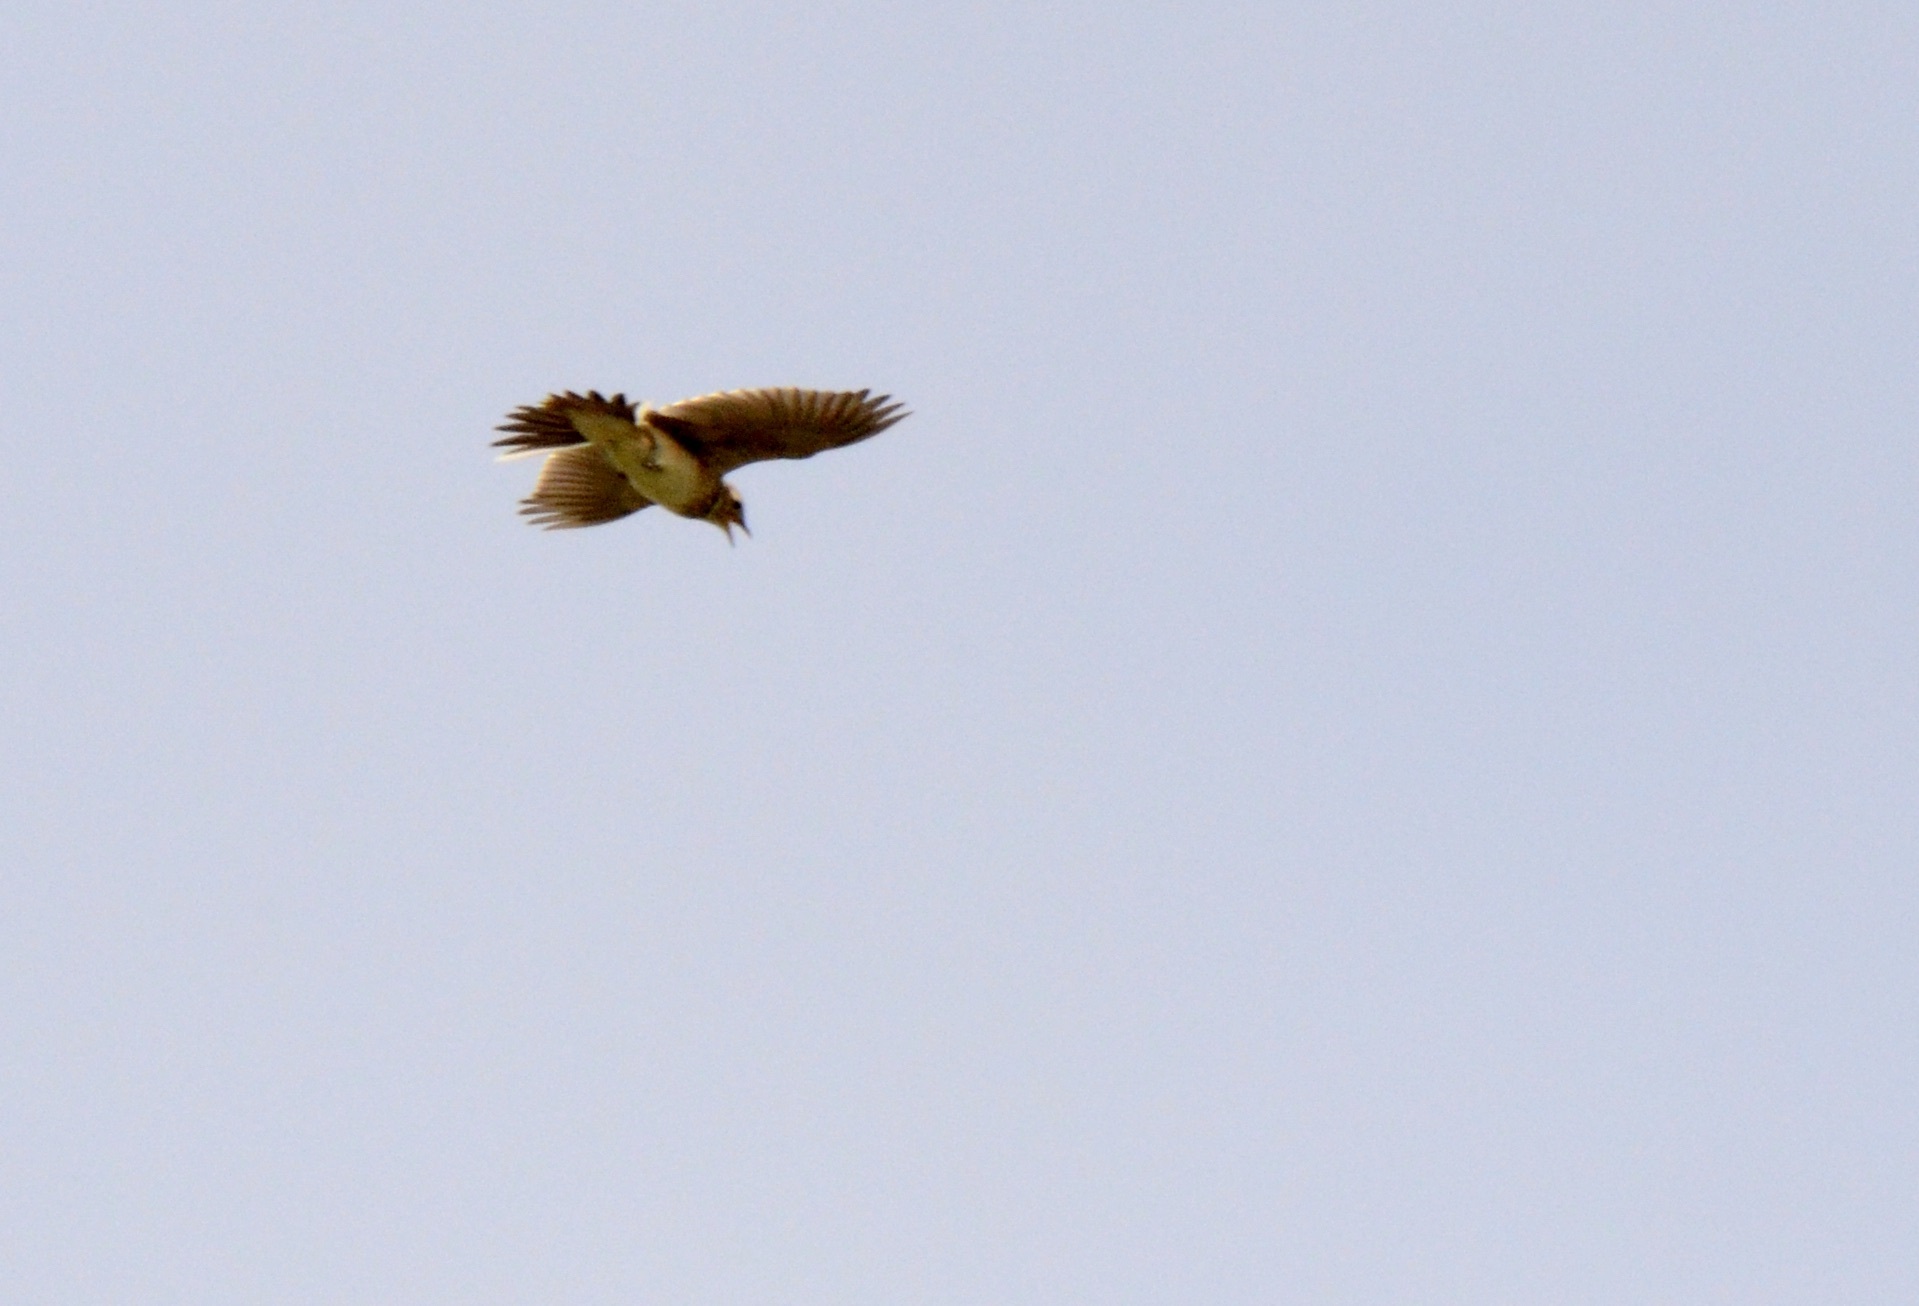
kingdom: Animalia
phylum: Chordata
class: Aves
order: Passeriformes
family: Alaudidae
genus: Alauda
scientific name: Alauda arvensis
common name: Eurasian skylark
